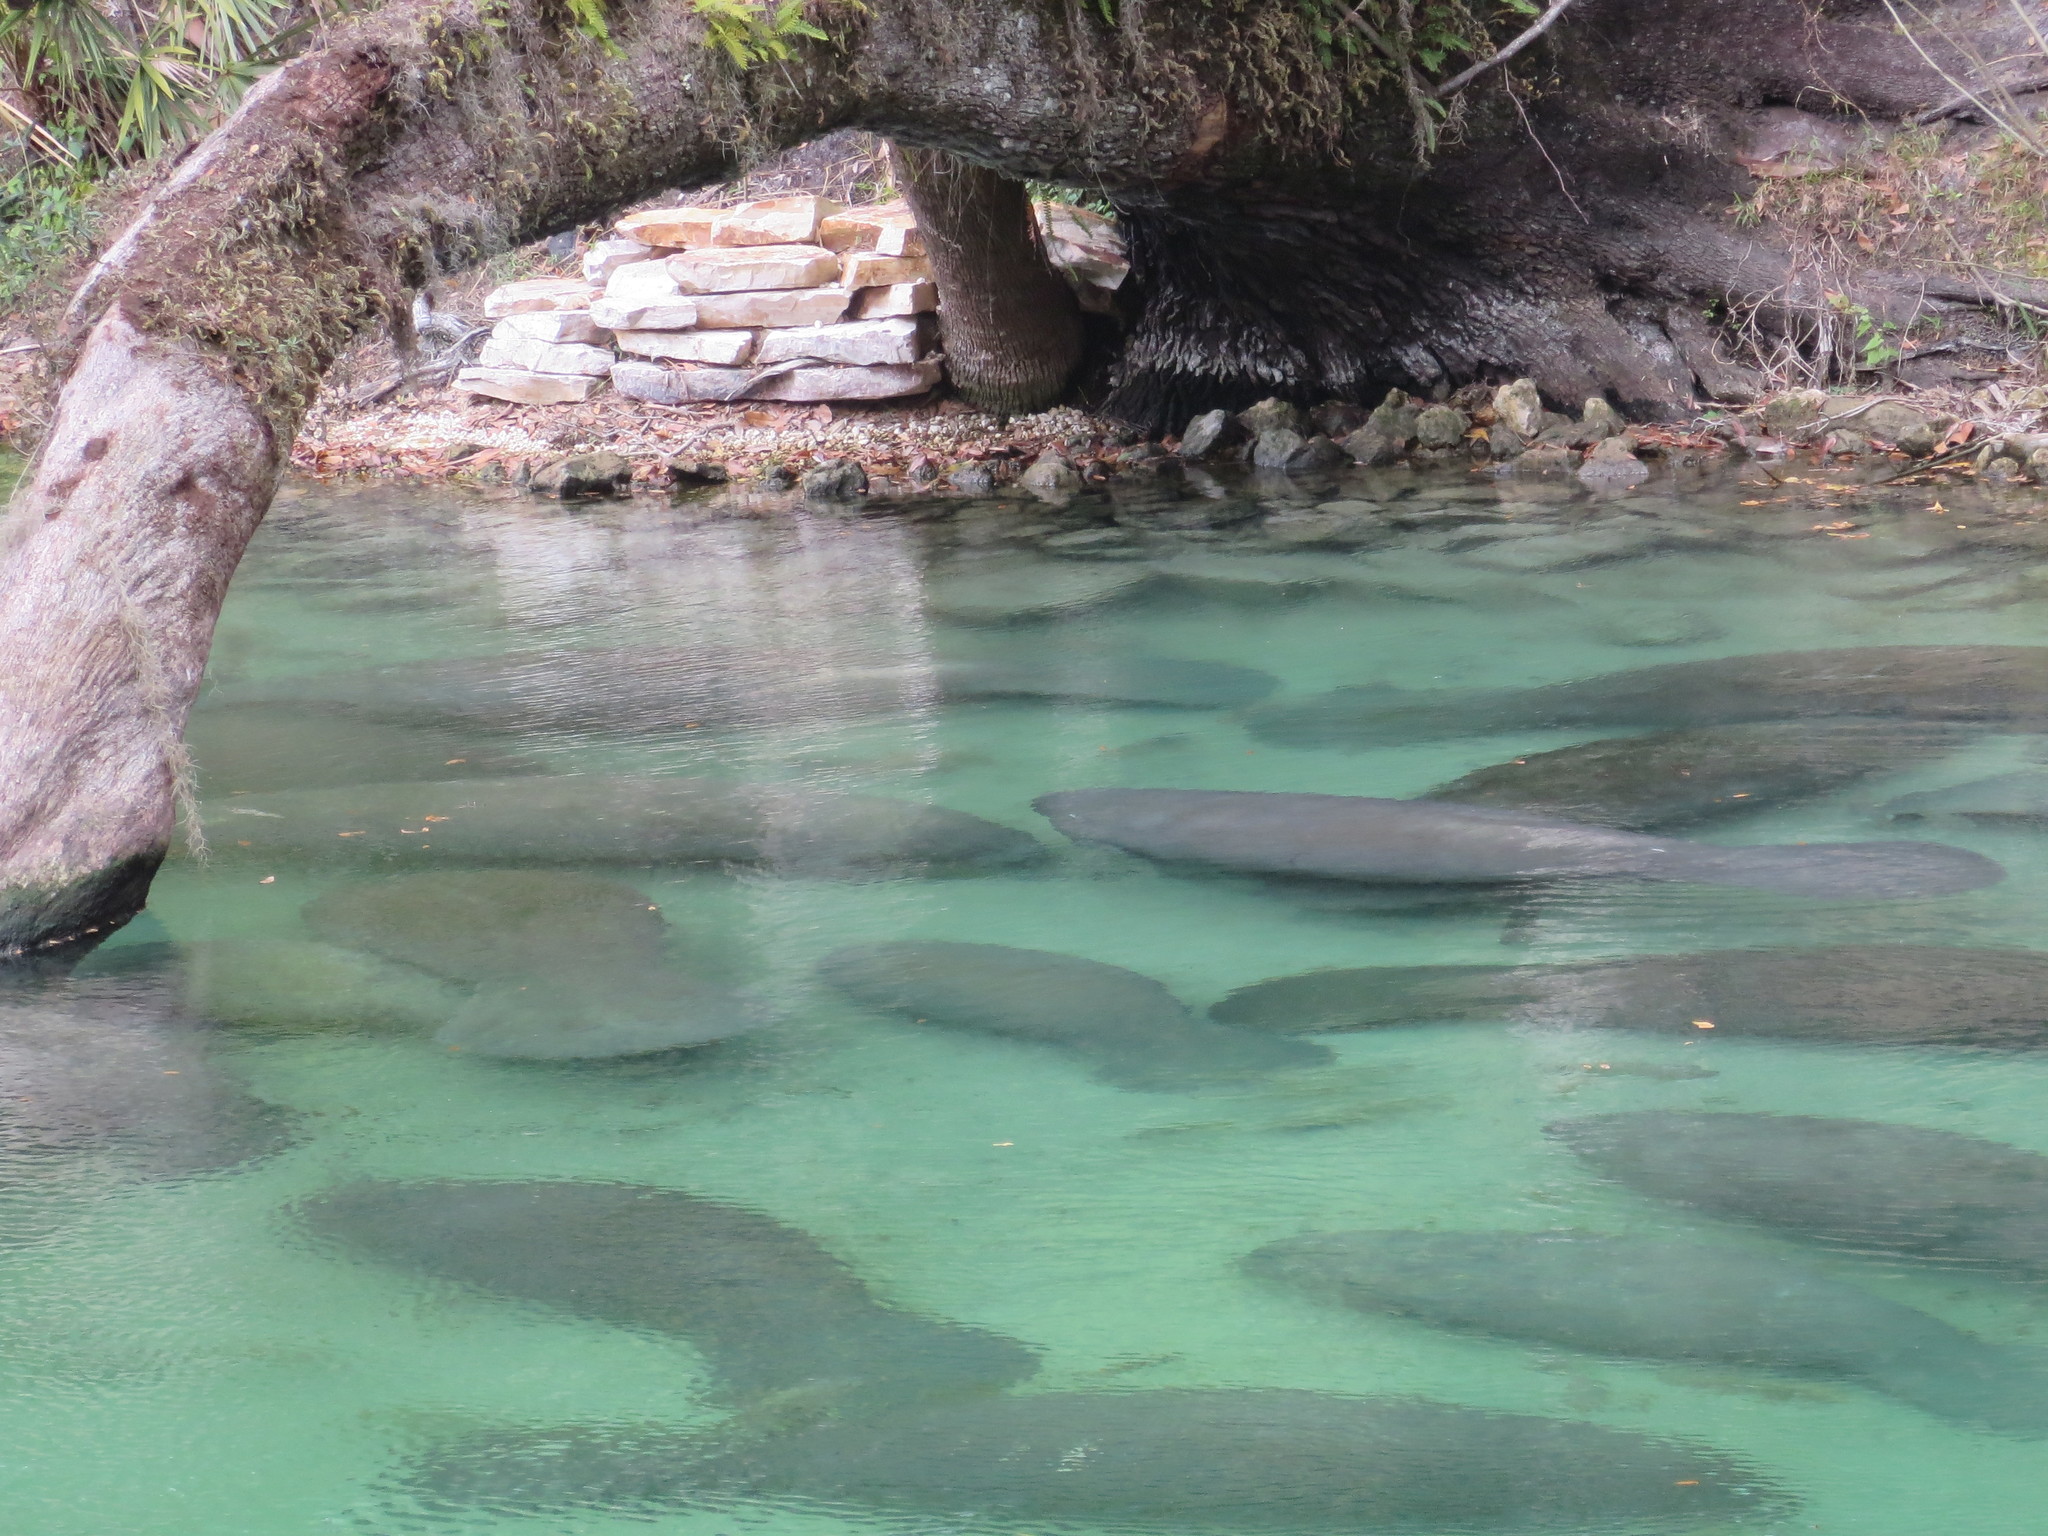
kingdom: Animalia
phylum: Chordata
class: Mammalia
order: Sirenia
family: Trichechidae
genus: Trichechus
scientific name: Trichechus manatus
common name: West indian manatee
